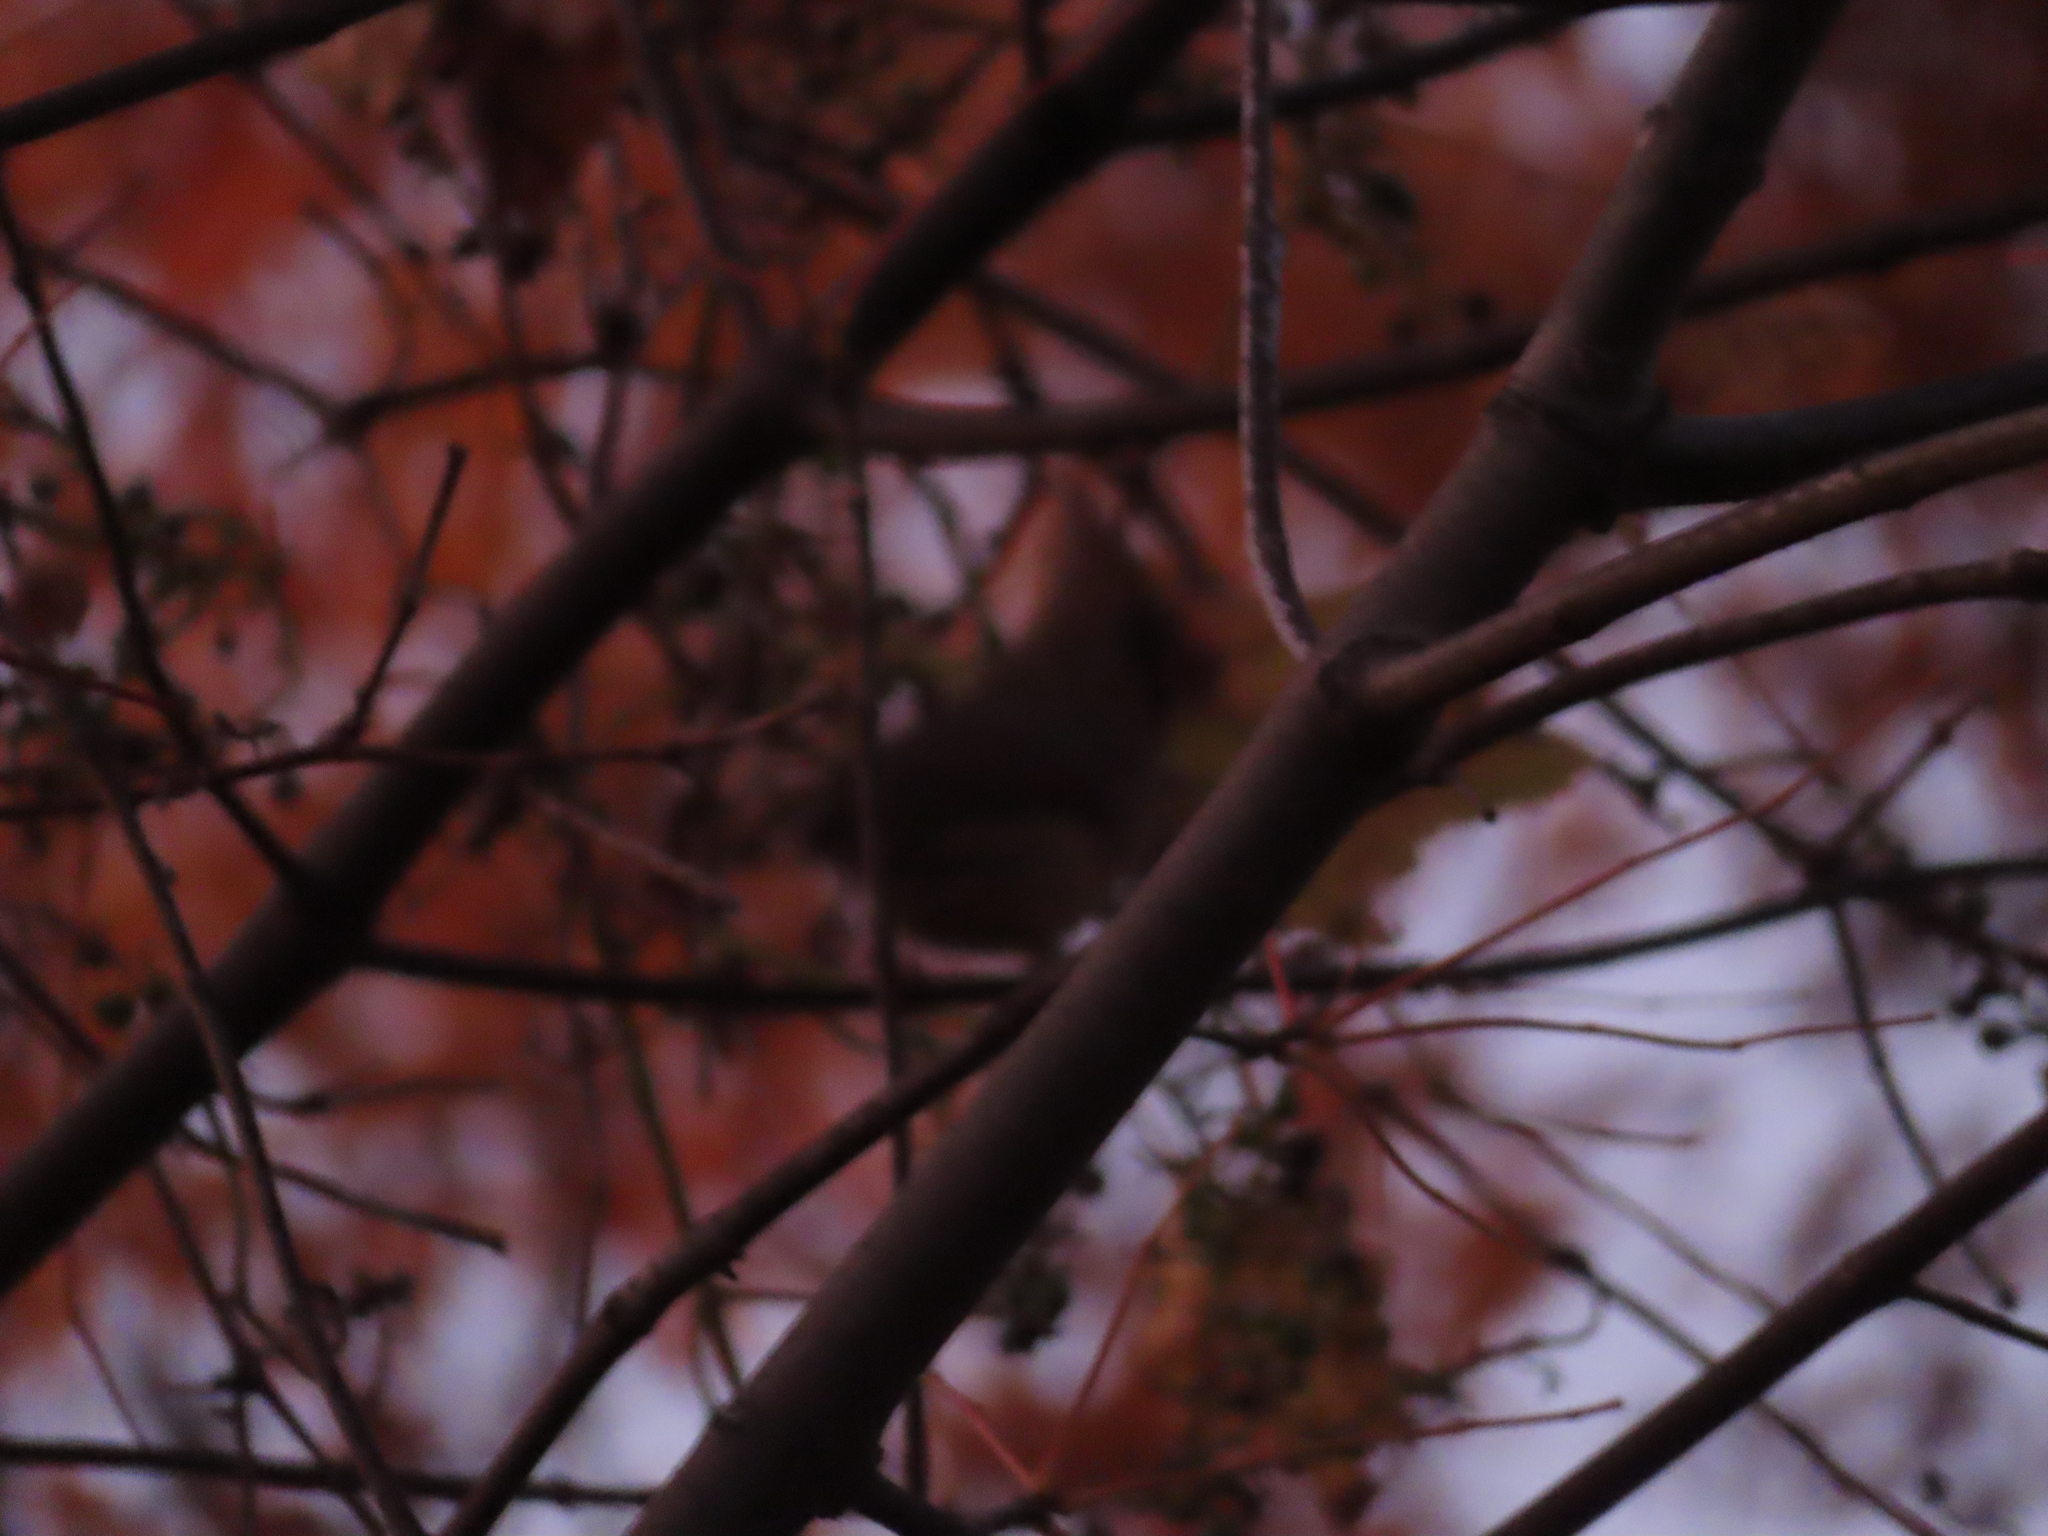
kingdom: Animalia
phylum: Chordata
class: Aves
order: Passeriformes
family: Cardinalidae
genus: Cardinalis
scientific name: Cardinalis cardinalis
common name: Northern cardinal
